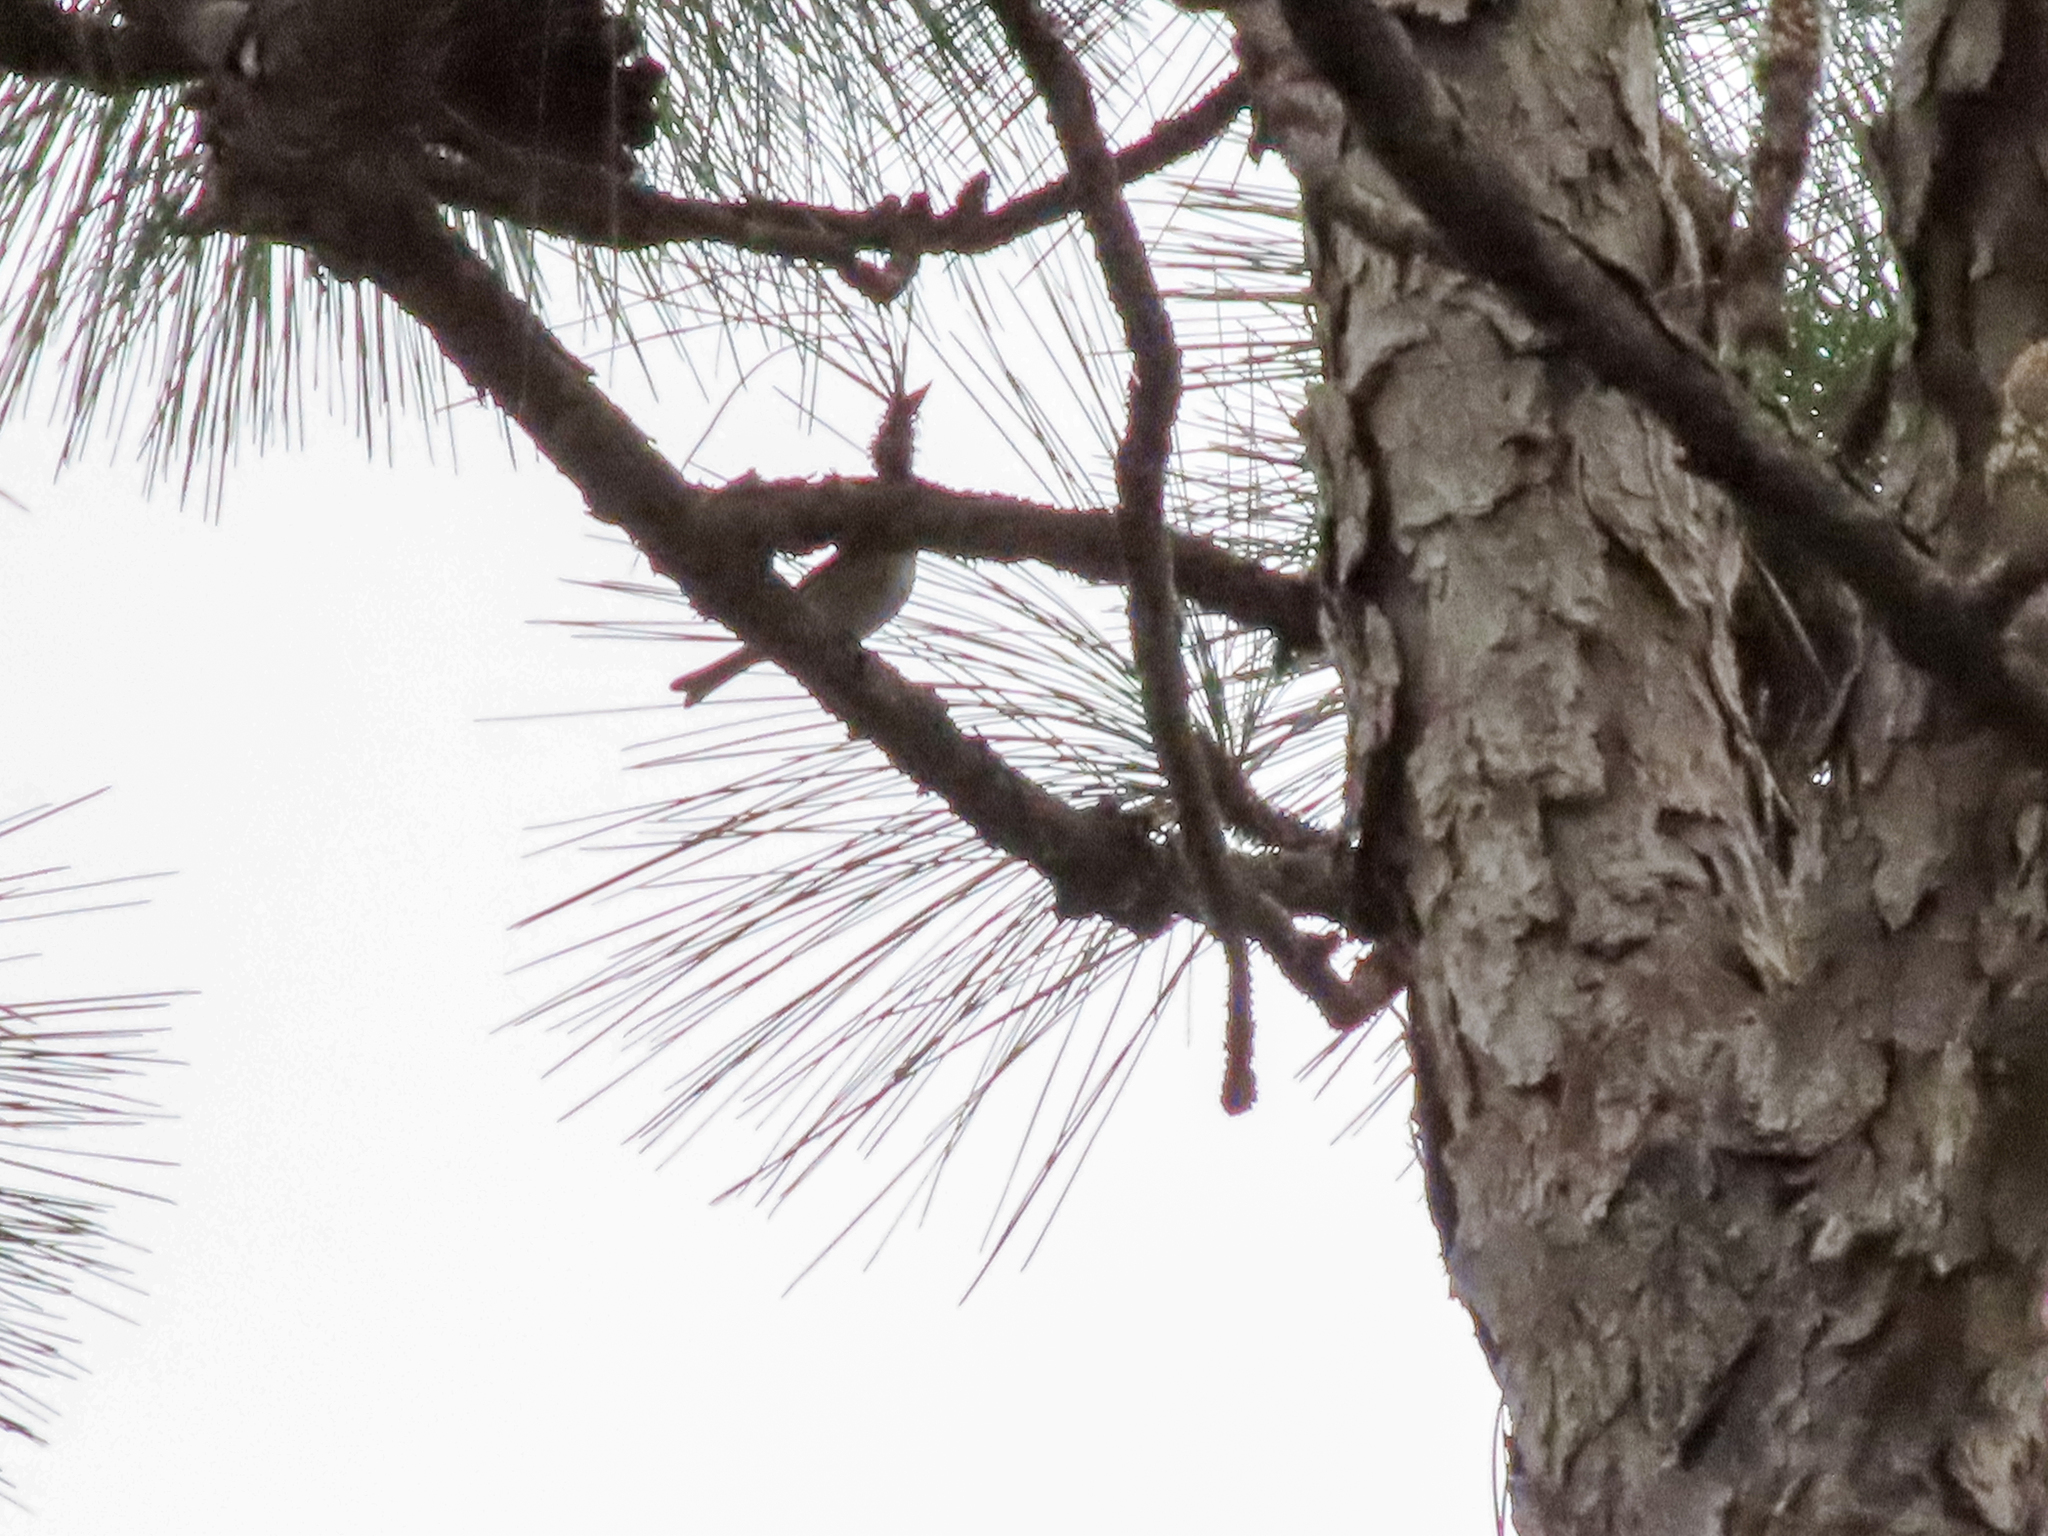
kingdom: Animalia
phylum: Chordata
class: Aves
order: Passeriformes
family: Parulidae
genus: Setophaga
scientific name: Setophaga pinus
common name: Pine warbler
